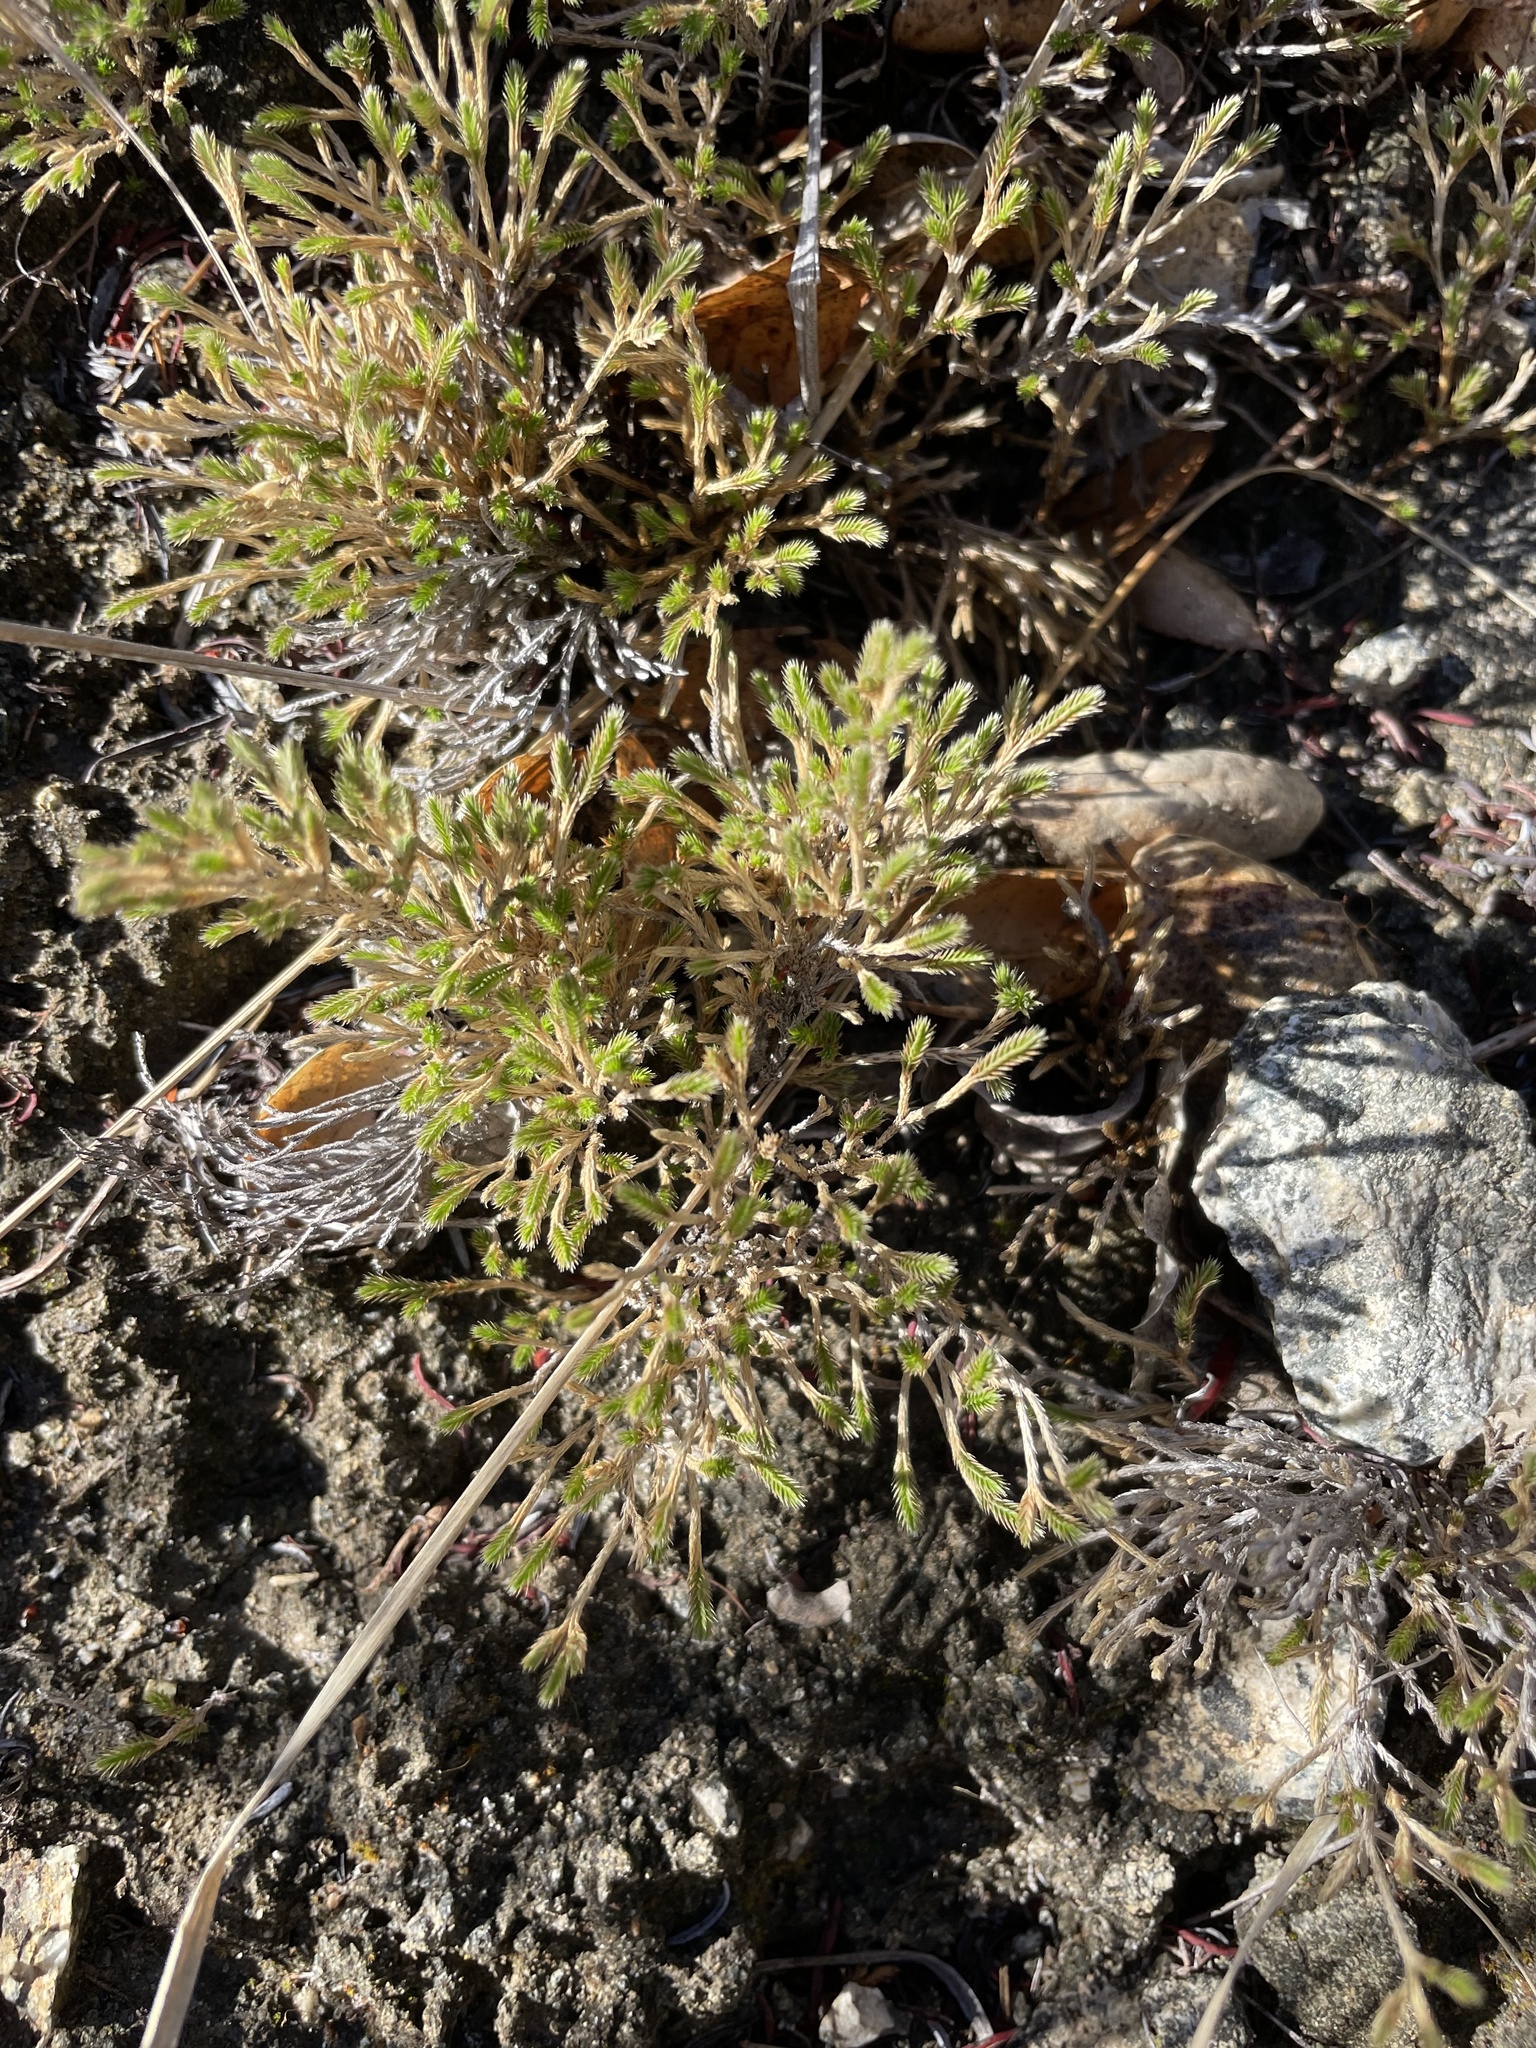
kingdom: Plantae
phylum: Tracheophyta
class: Lycopodiopsida
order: Selaginellales
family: Selaginellaceae
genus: Selaginella
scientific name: Selaginella bigelovii
